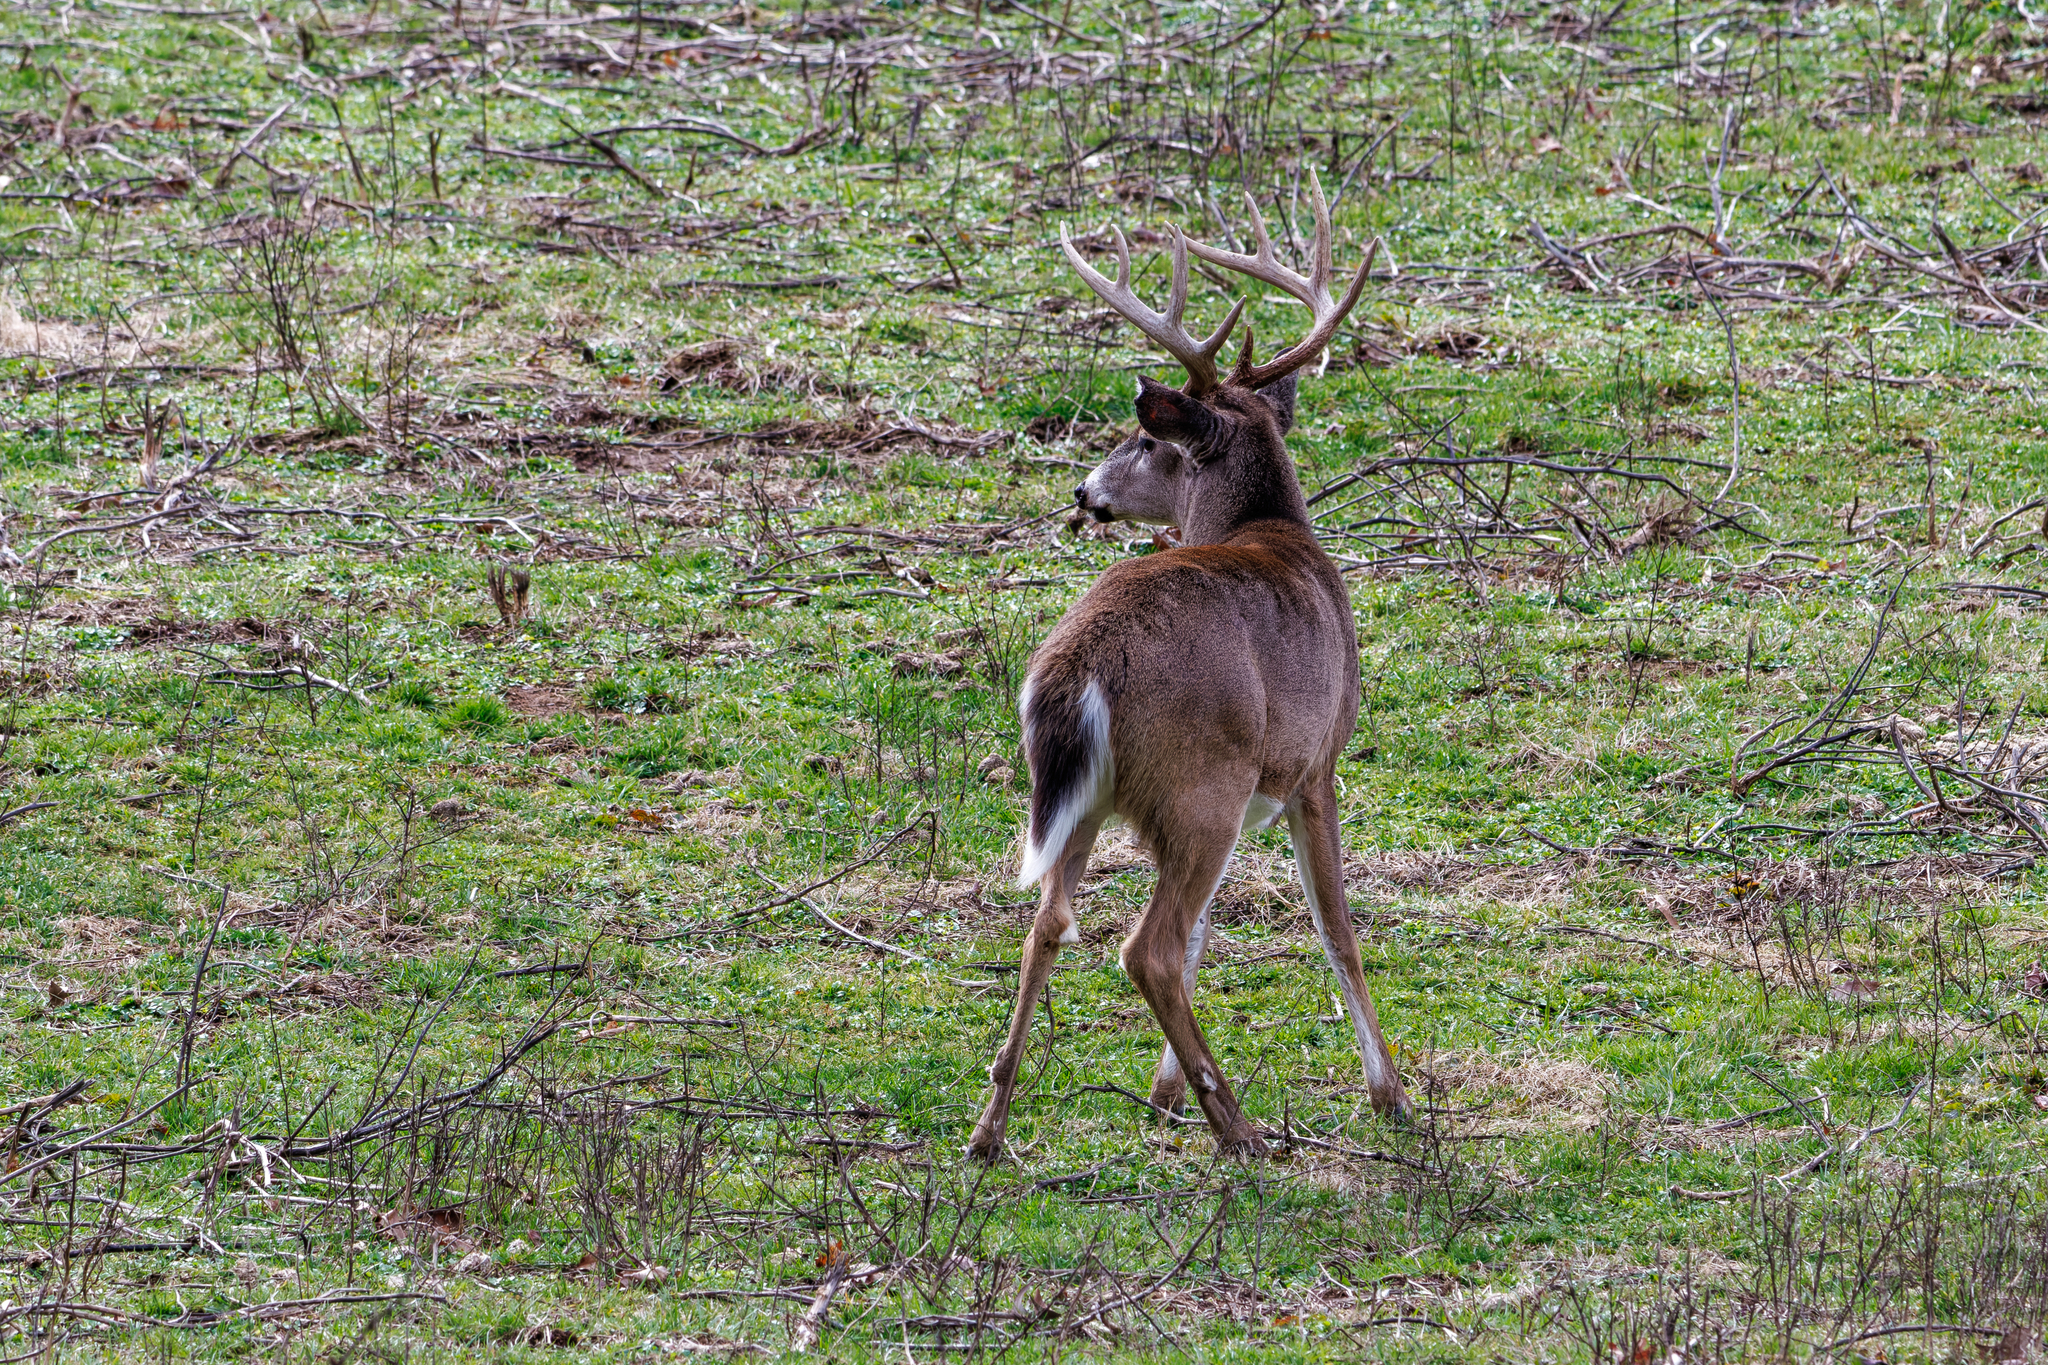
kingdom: Animalia
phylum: Chordata
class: Mammalia
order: Artiodactyla
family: Cervidae
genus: Odocoileus
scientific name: Odocoileus virginianus
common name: White-tailed deer
